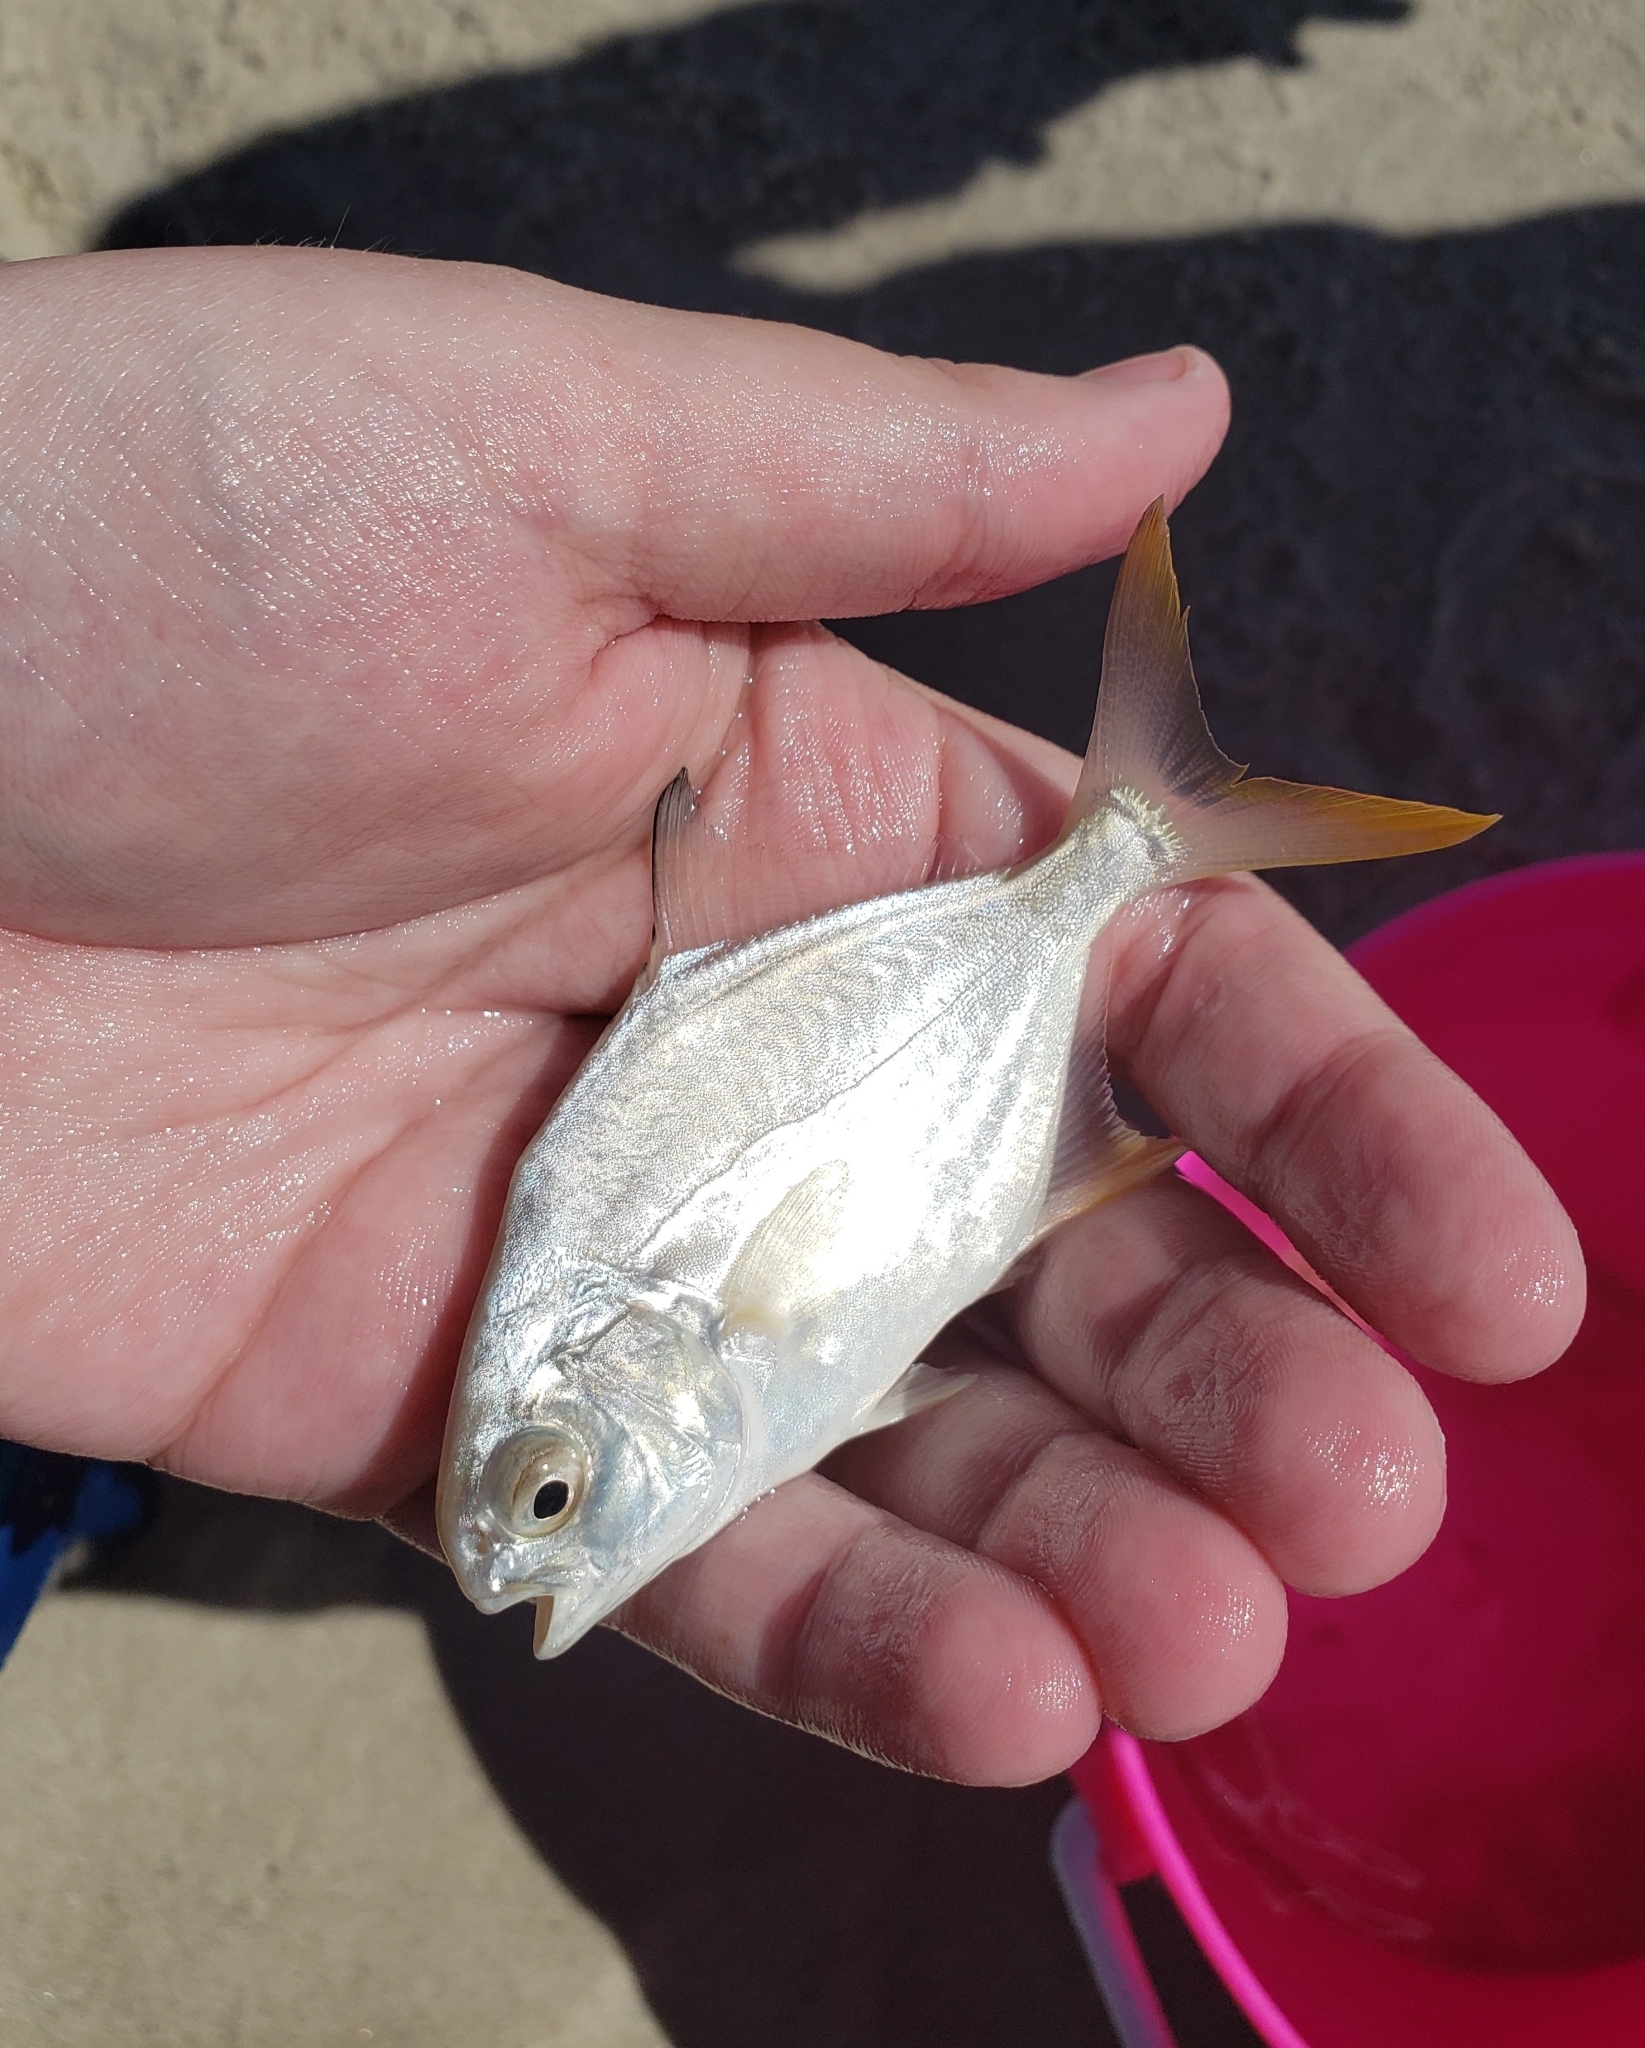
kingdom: Animalia
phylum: Chordata
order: Perciformes
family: Carangidae
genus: Trachinotus
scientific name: Trachinotus carolinus
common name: Florida pompano
